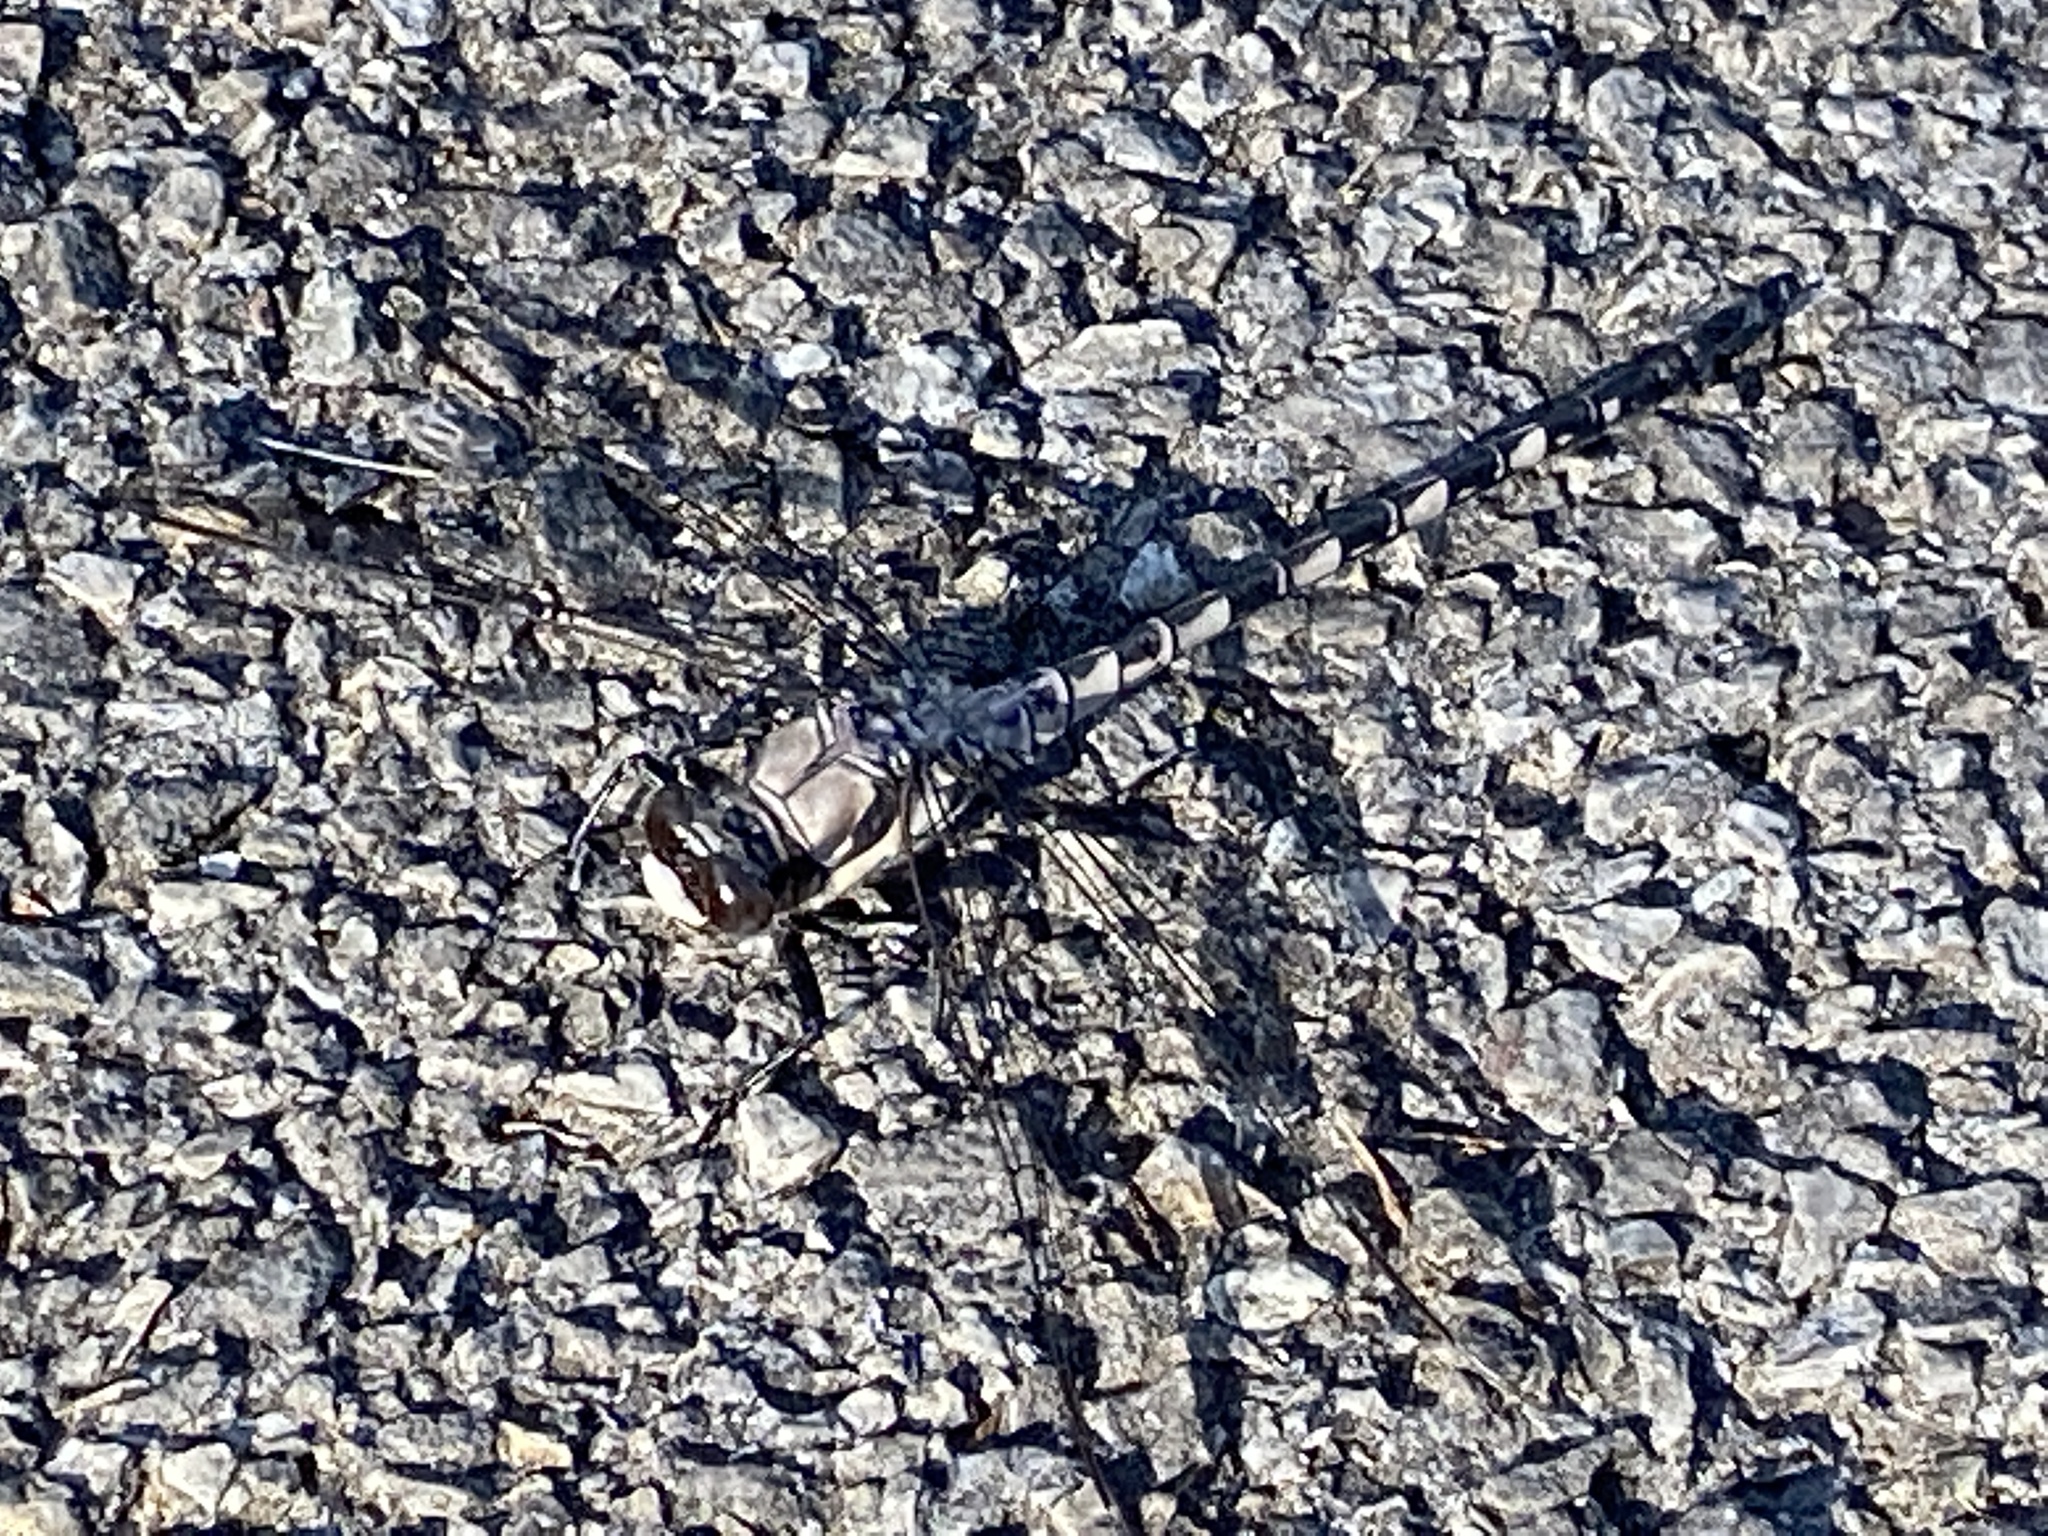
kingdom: Animalia
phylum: Arthropoda
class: Insecta
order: Odonata
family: Petaluridae
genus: Tachopteryx
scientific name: Tachopteryx thoreyi
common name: Gray petaltail
